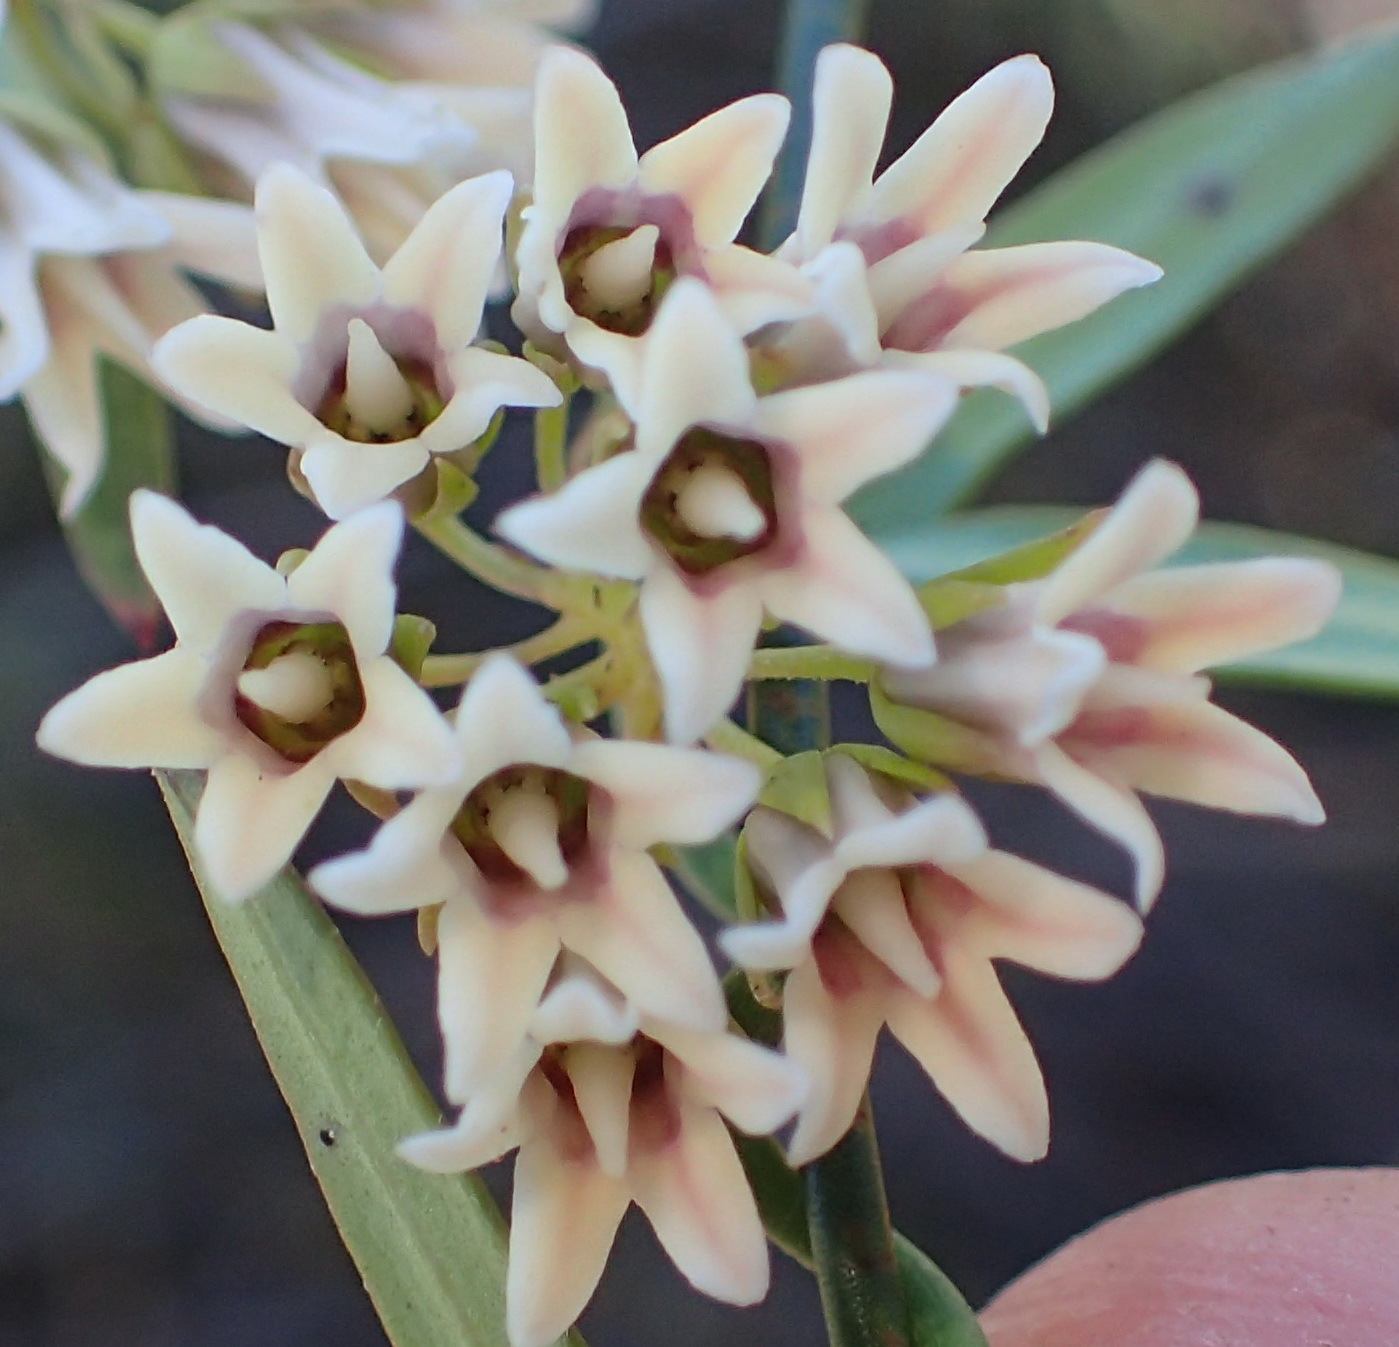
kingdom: Plantae
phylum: Tracheophyta
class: Magnoliopsida
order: Gentianales
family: Apocynaceae
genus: Astephanus
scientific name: Astephanus triflorus
